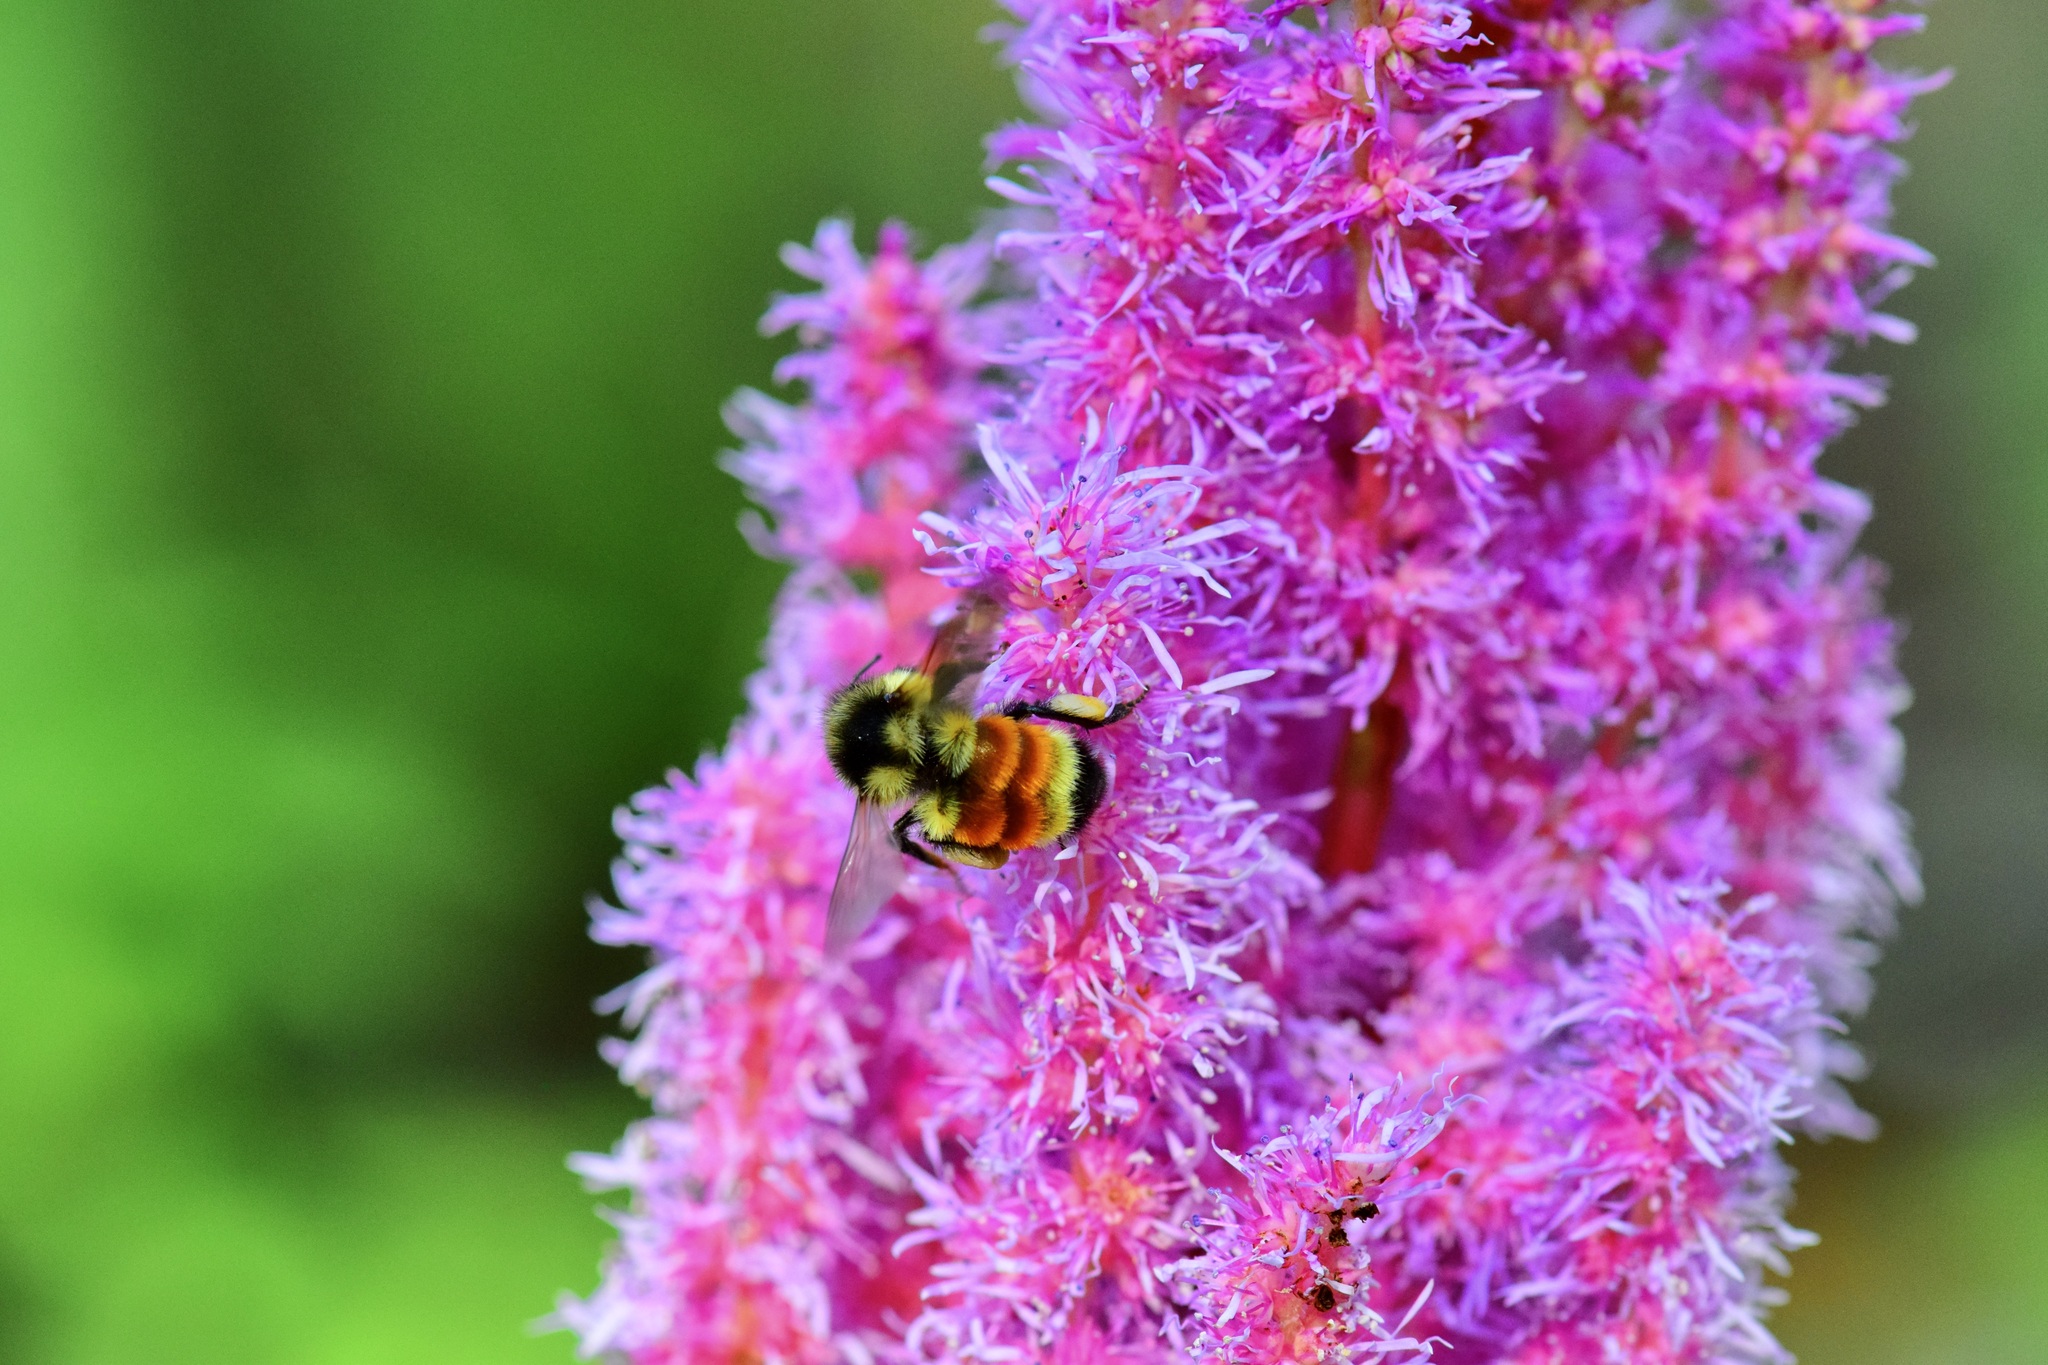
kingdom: Animalia
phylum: Arthropoda
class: Insecta
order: Hymenoptera
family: Apidae
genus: Bombus
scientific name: Bombus ternarius
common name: Tri-colored bumble bee
